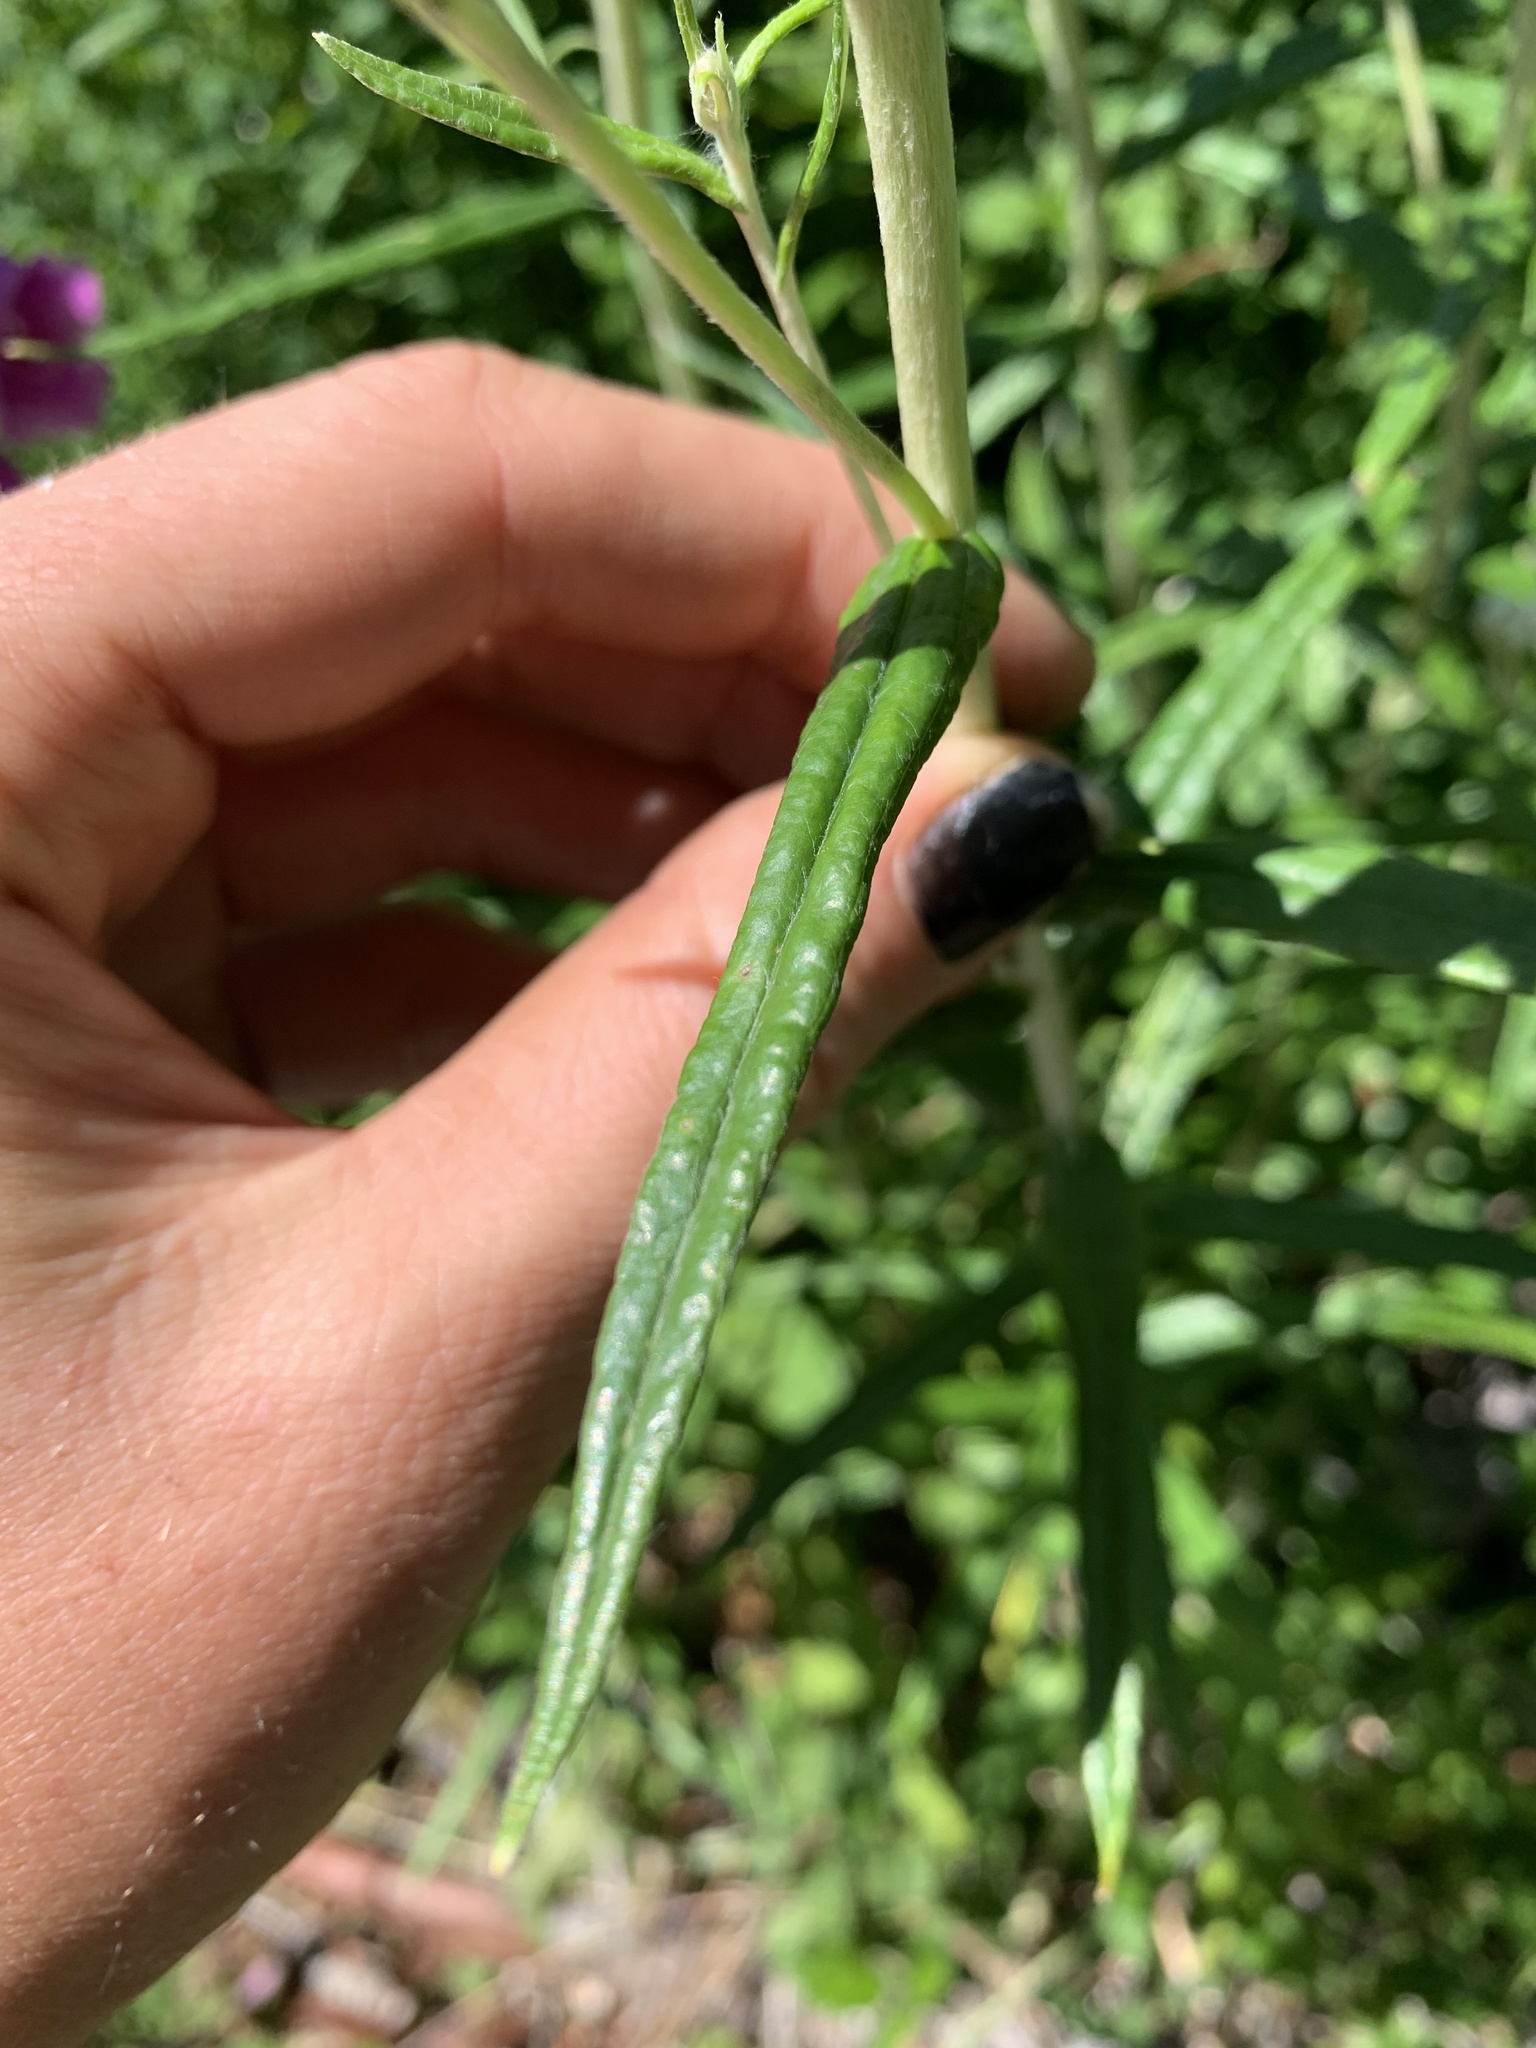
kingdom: Plantae
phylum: Tracheophyta
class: Magnoliopsida
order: Asterales
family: Asteraceae
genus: Anaphalis
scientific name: Anaphalis margaritacea
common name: Pearly everlasting
